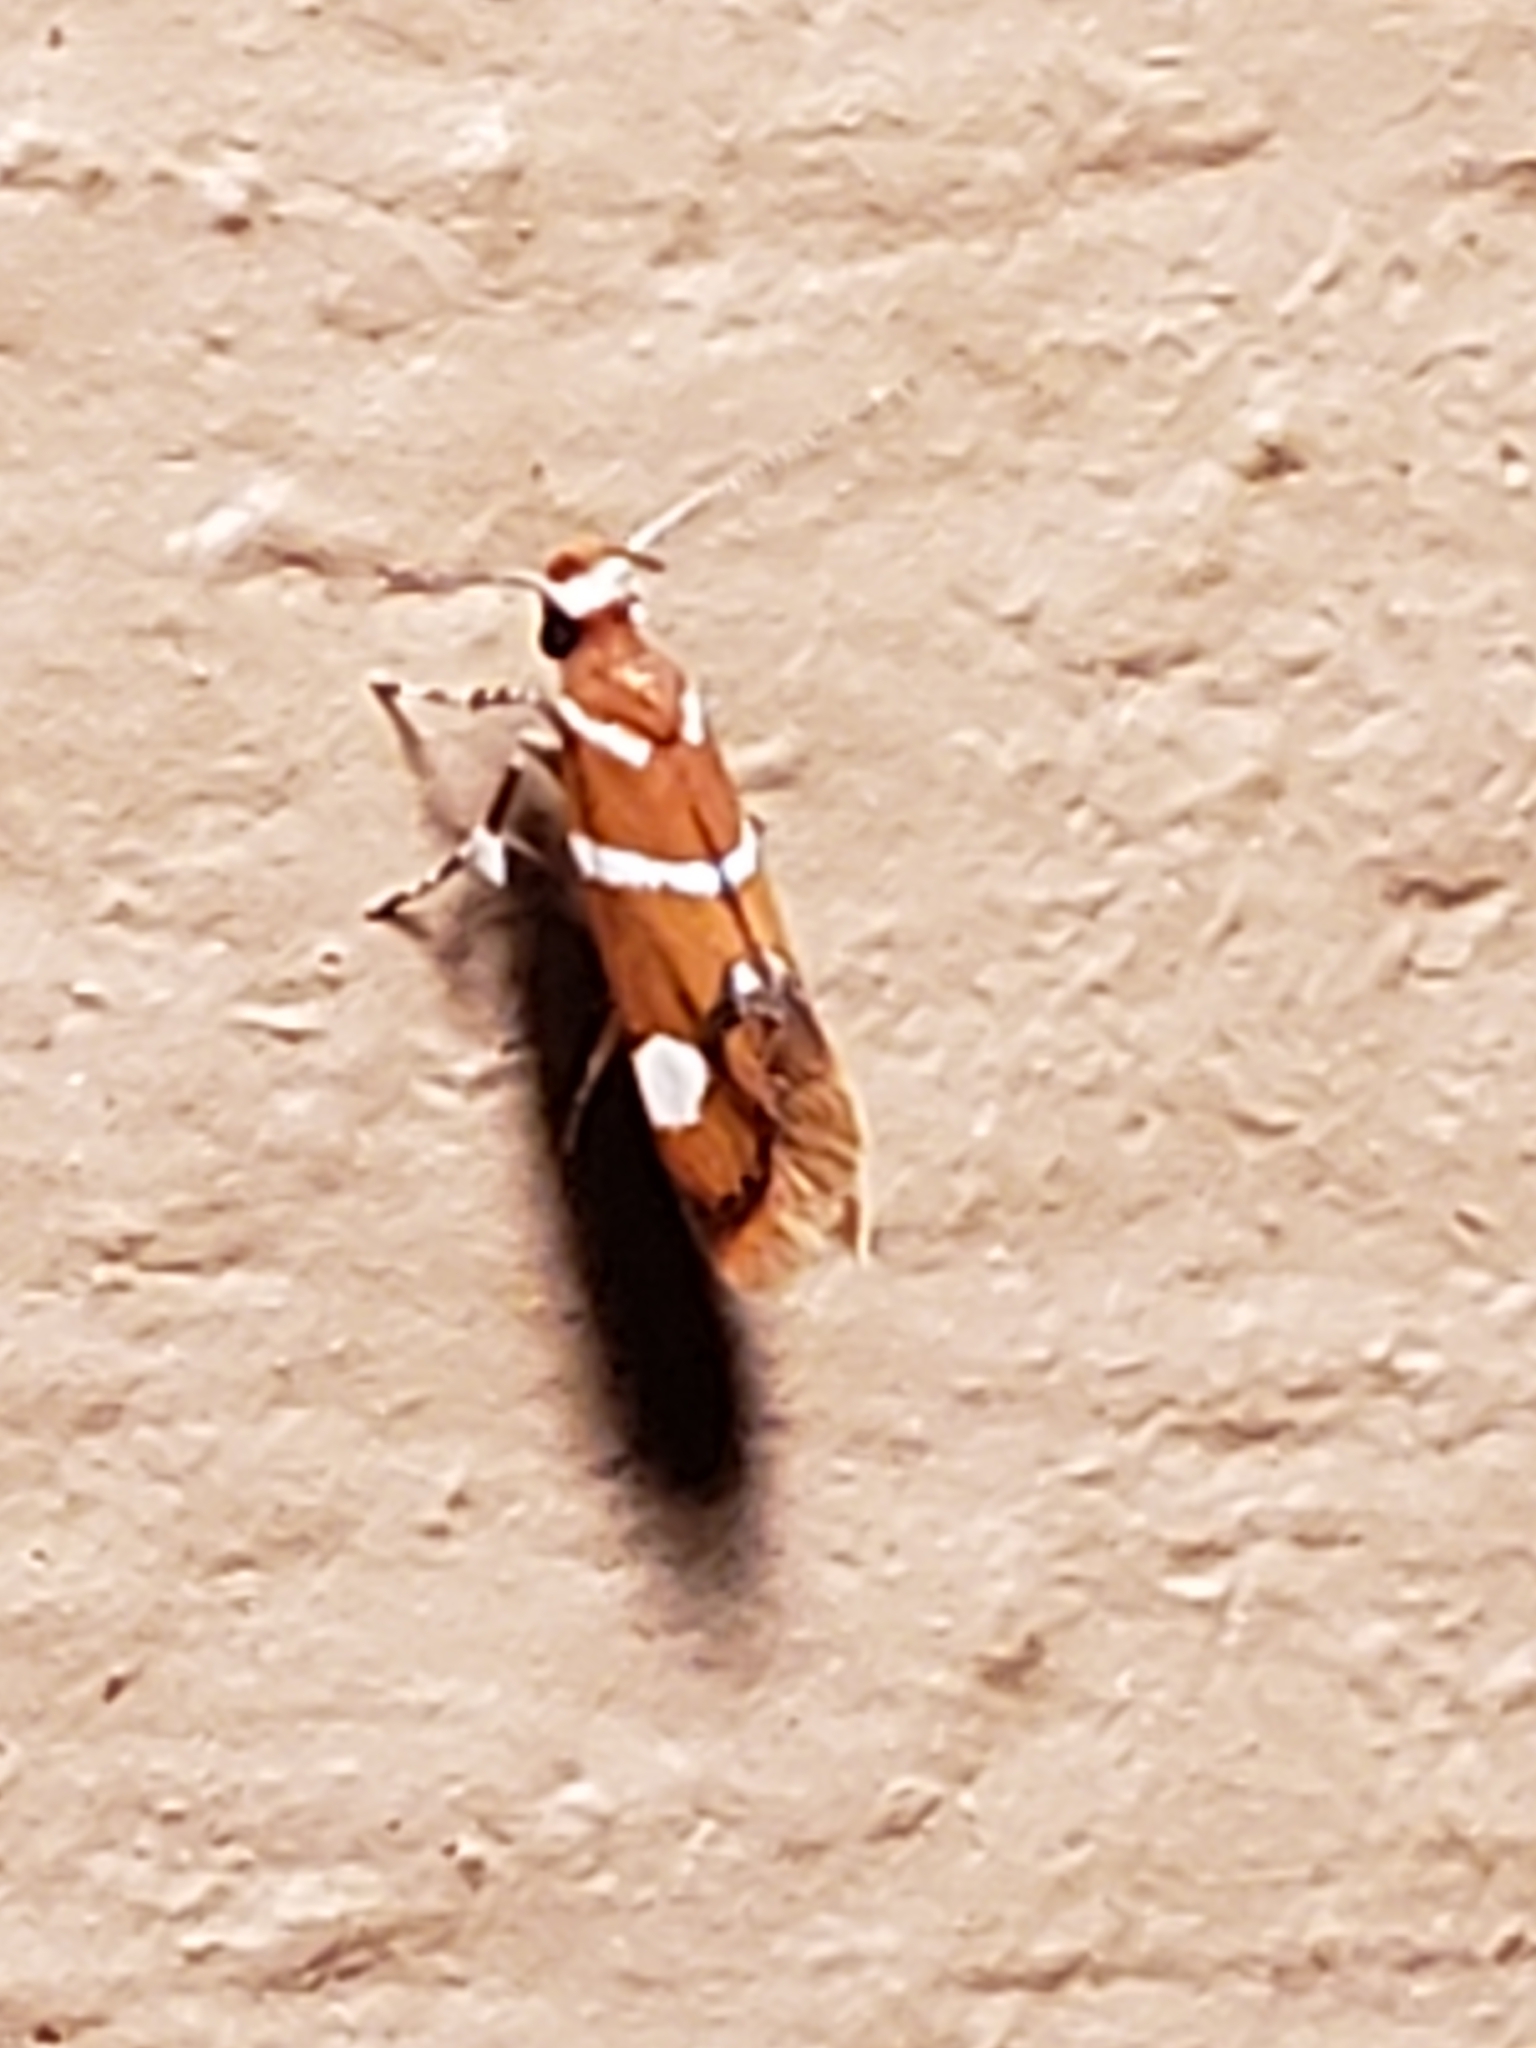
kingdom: Animalia
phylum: Arthropoda
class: Insecta
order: Lepidoptera
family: Oecophoridae
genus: Promalactis
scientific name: Promalactis suzukiella
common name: Moth
